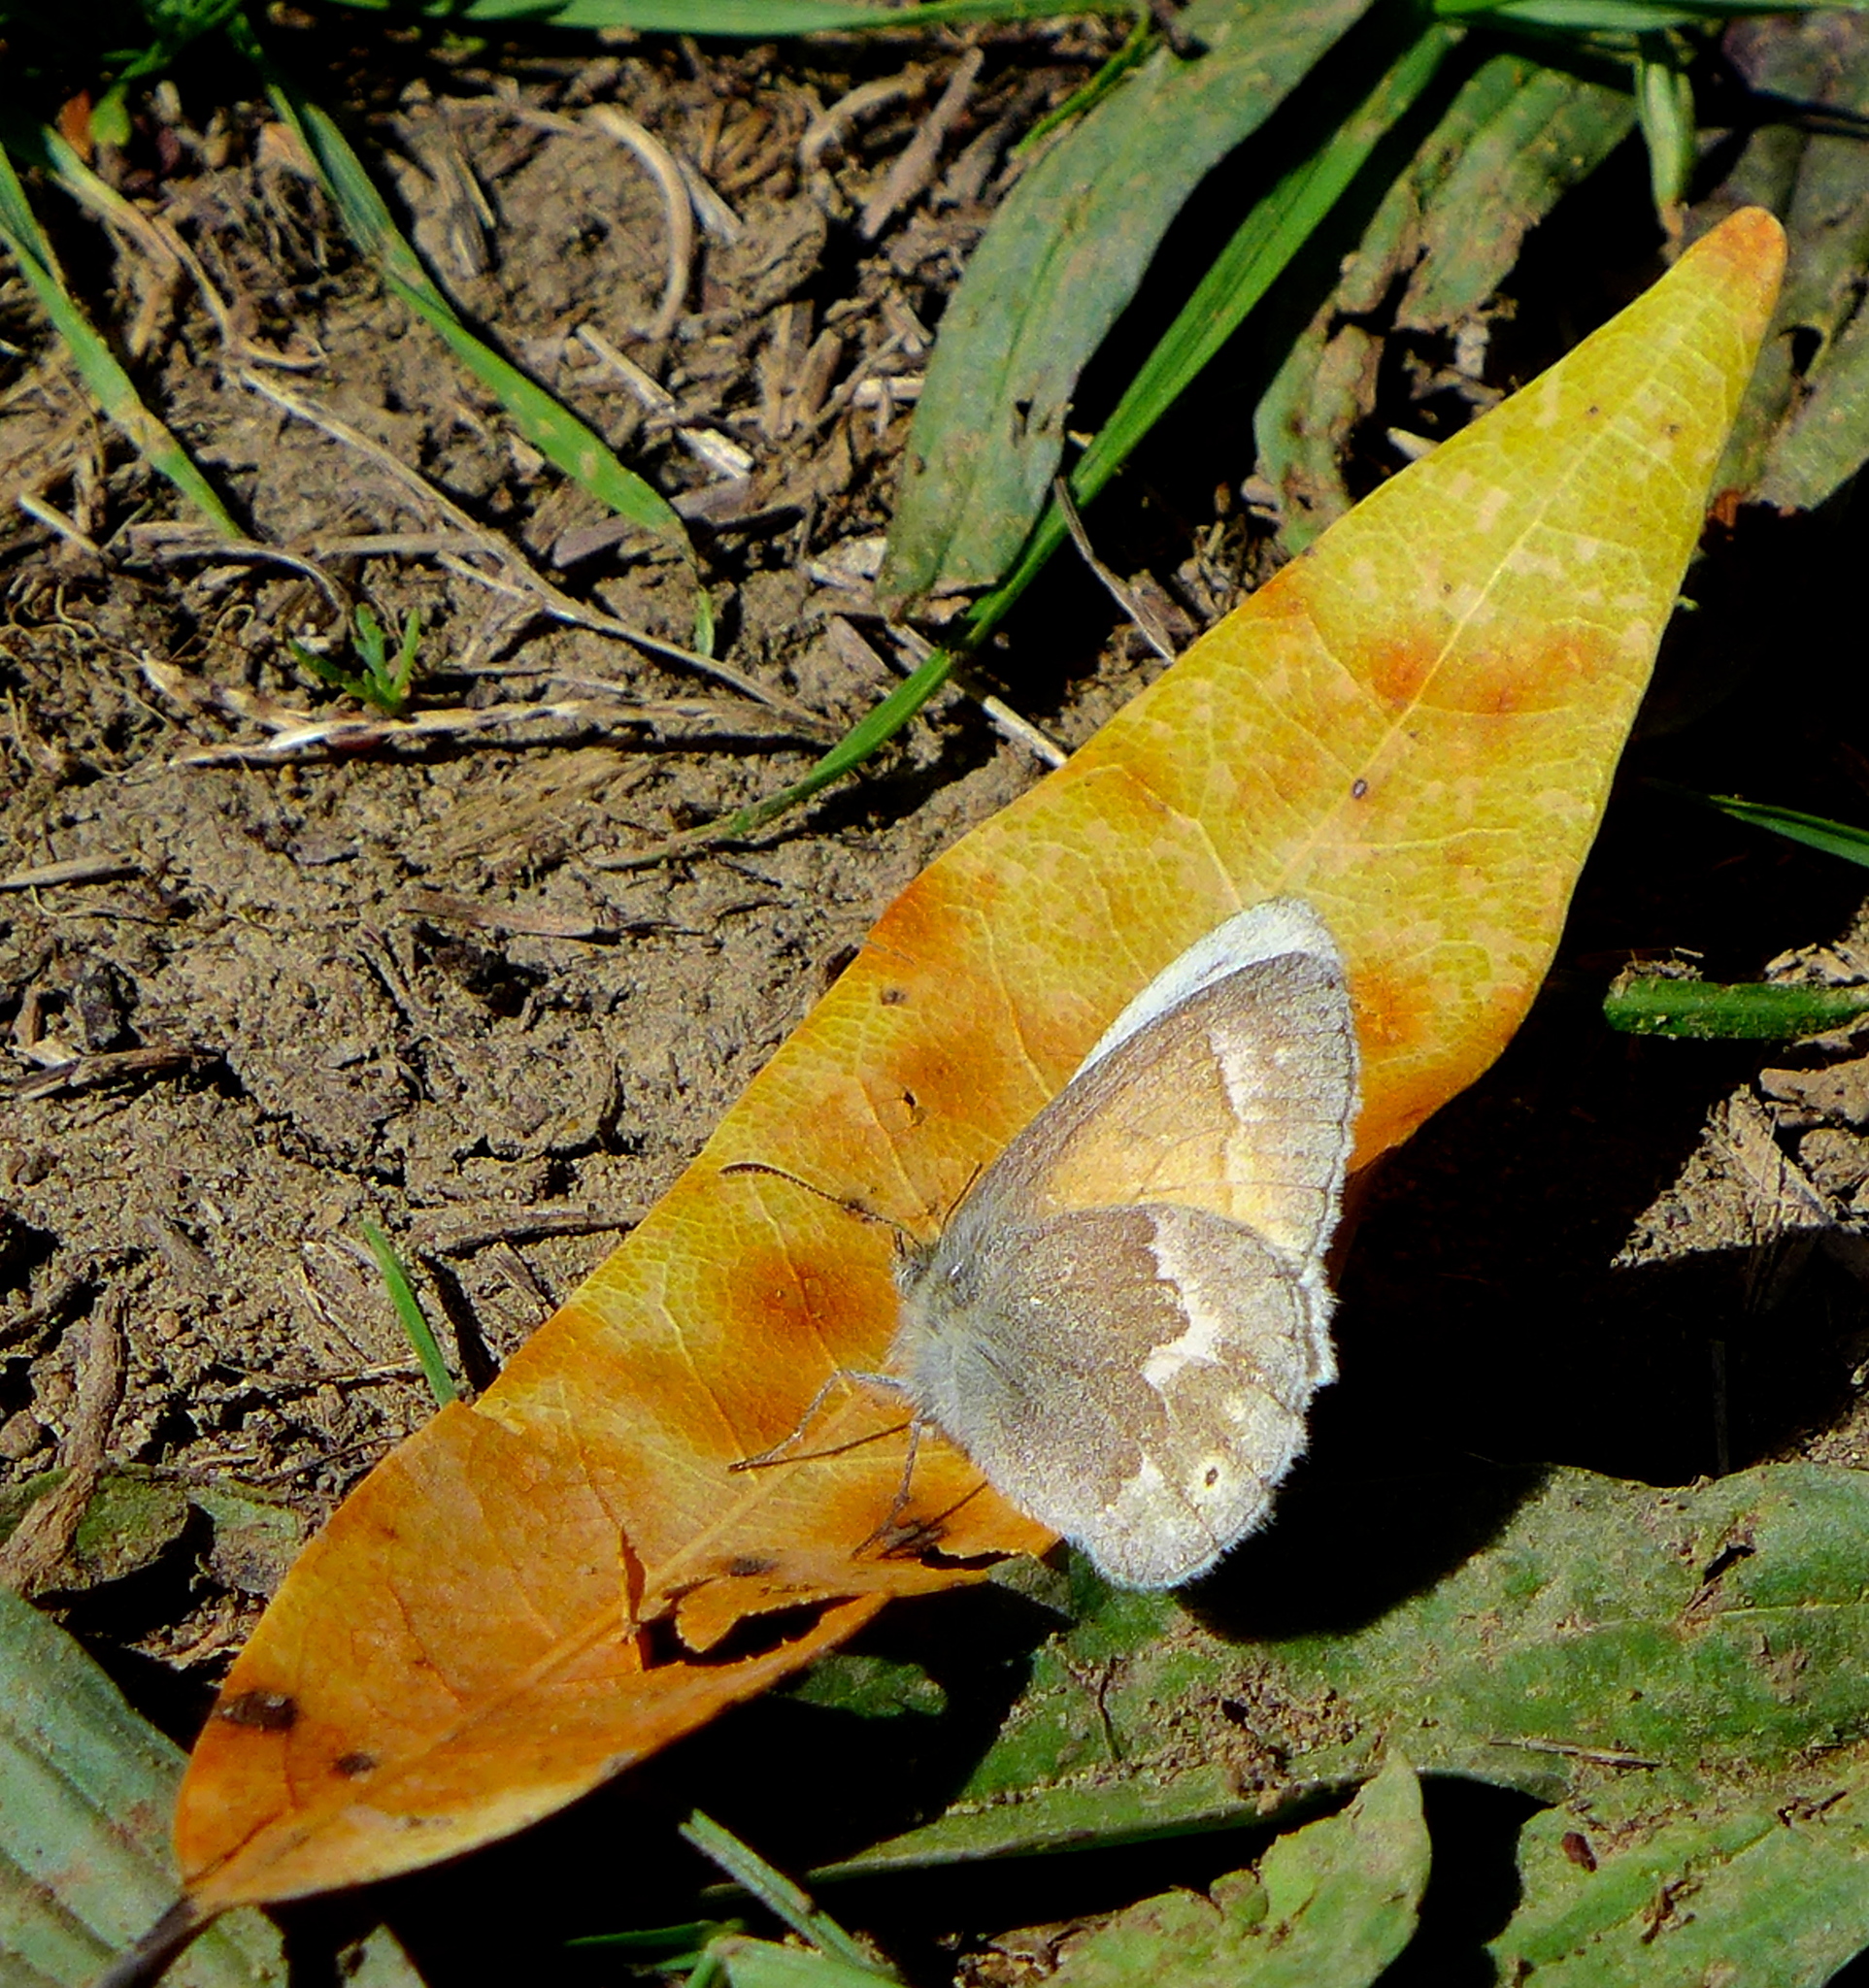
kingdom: Animalia
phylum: Arthropoda
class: Insecta
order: Lepidoptera
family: Nymphalidae
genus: Coenonympha
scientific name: Coenonympha california
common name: Common ringlet
